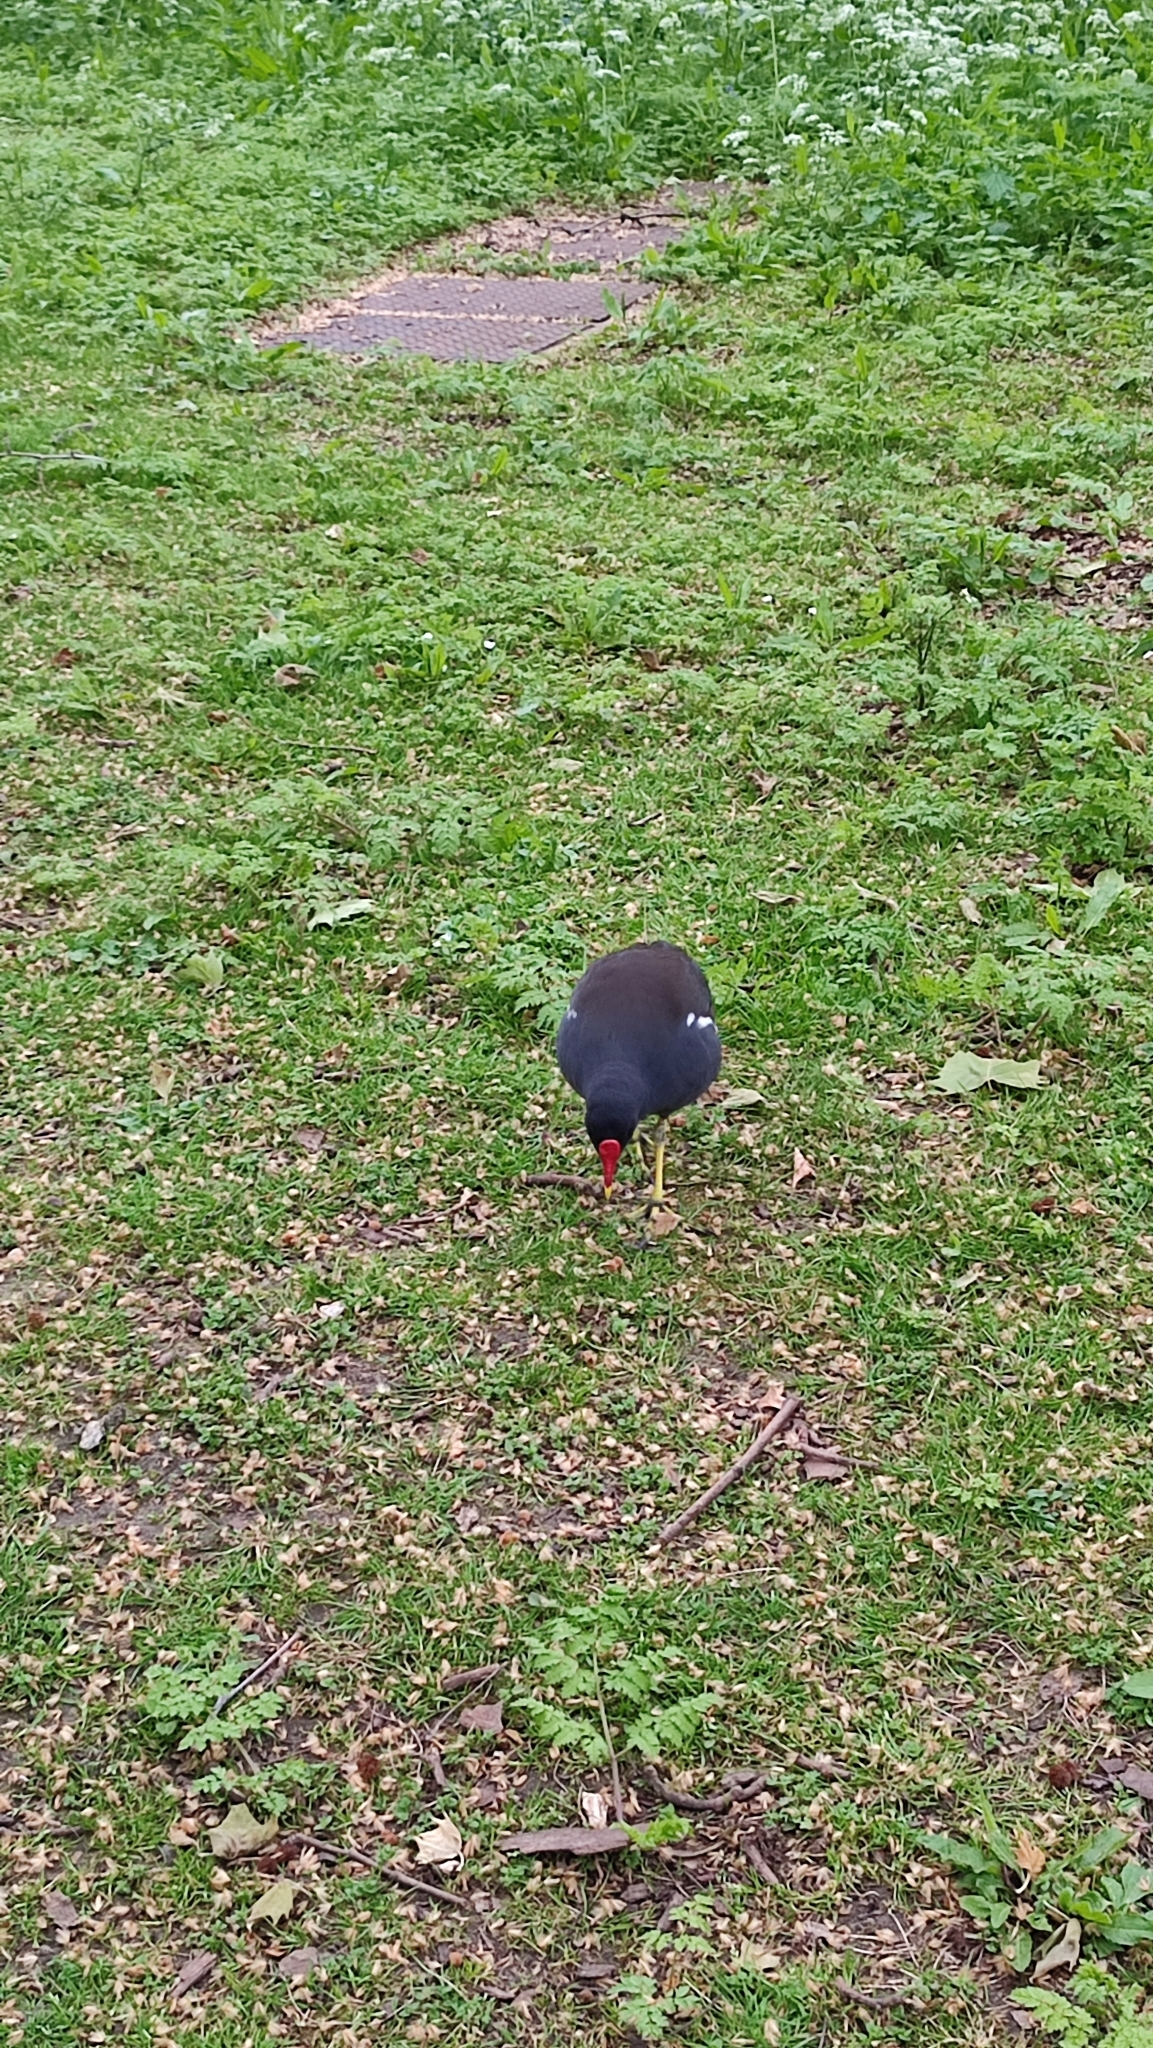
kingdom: Animalia
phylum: Chordata
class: Aves
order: Gruiformes
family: Rallidae
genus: Gallinula
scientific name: Gallinula chloropus
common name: Common moorhen
